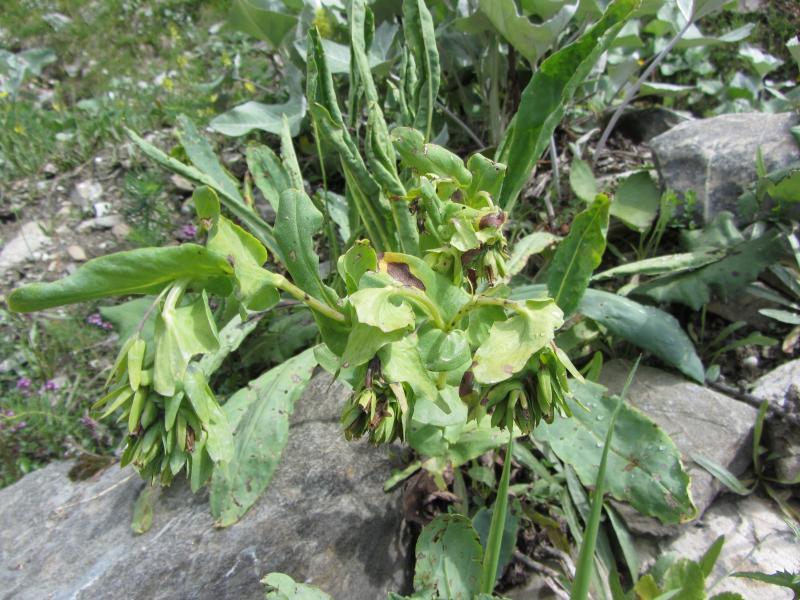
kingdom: Plantae
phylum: Tracheophyta
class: Magnoliopsida
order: Boraginales
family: Boraginaceae
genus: Cerinthe
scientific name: Cerinthe glabra
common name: Smooth honeywort
